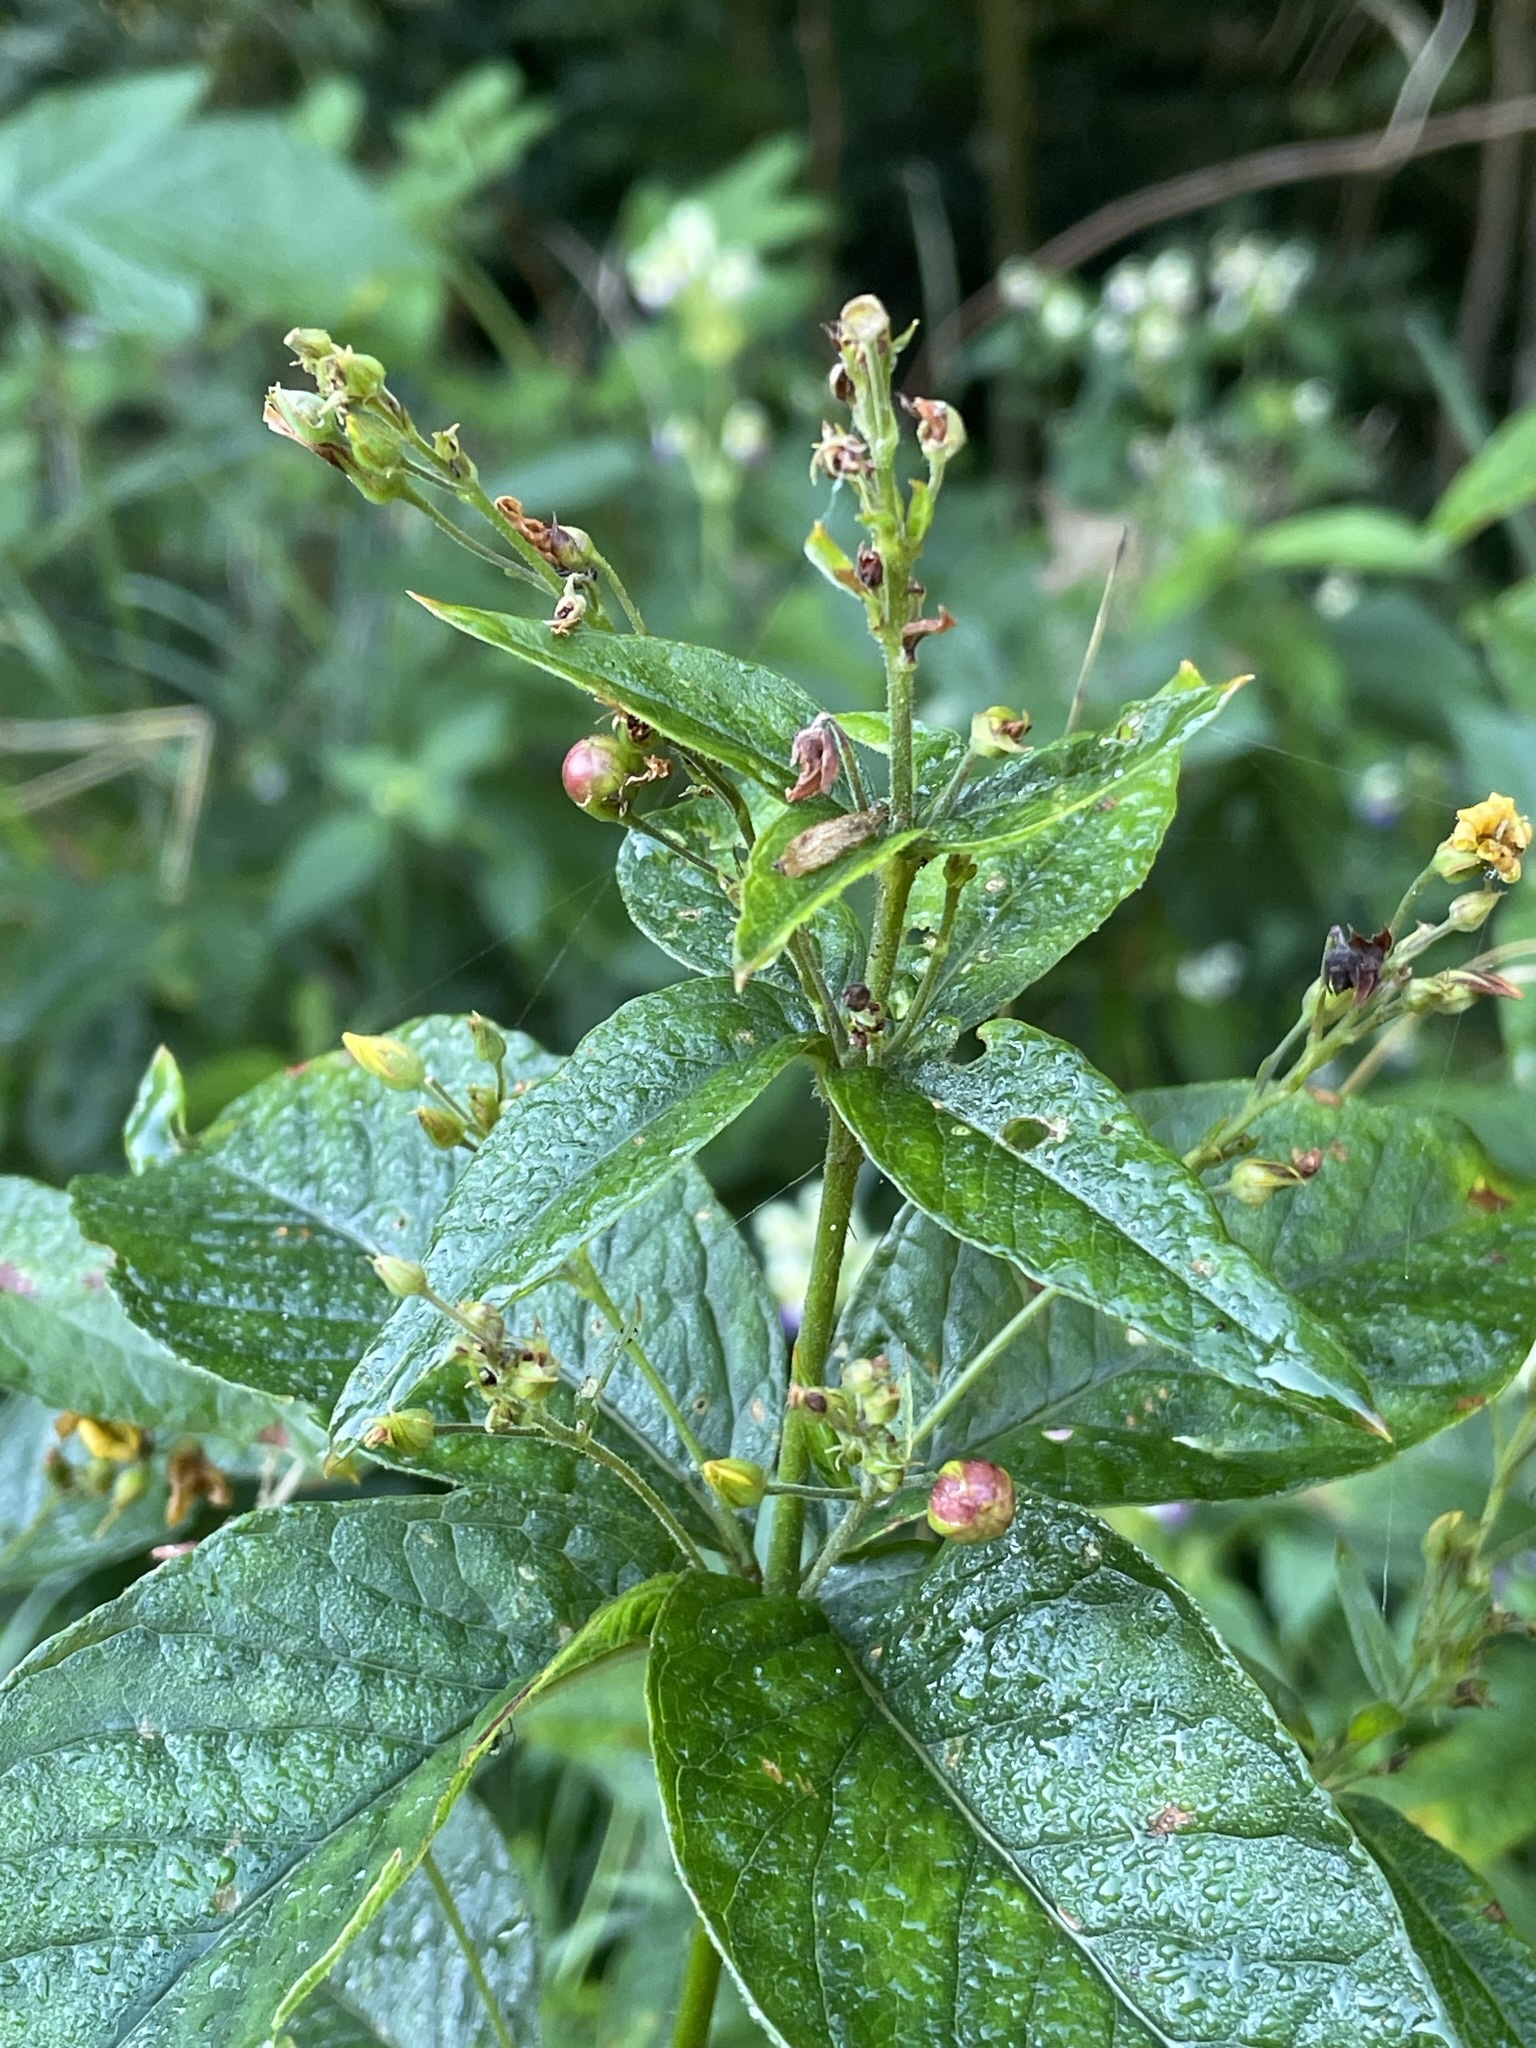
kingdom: Plantae
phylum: Tracheophyta
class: Magnoliopsida
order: Ericales
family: Primulaceae
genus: Lysimachia
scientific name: Lysimachia vulgaris
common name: Yellow loosestrife
